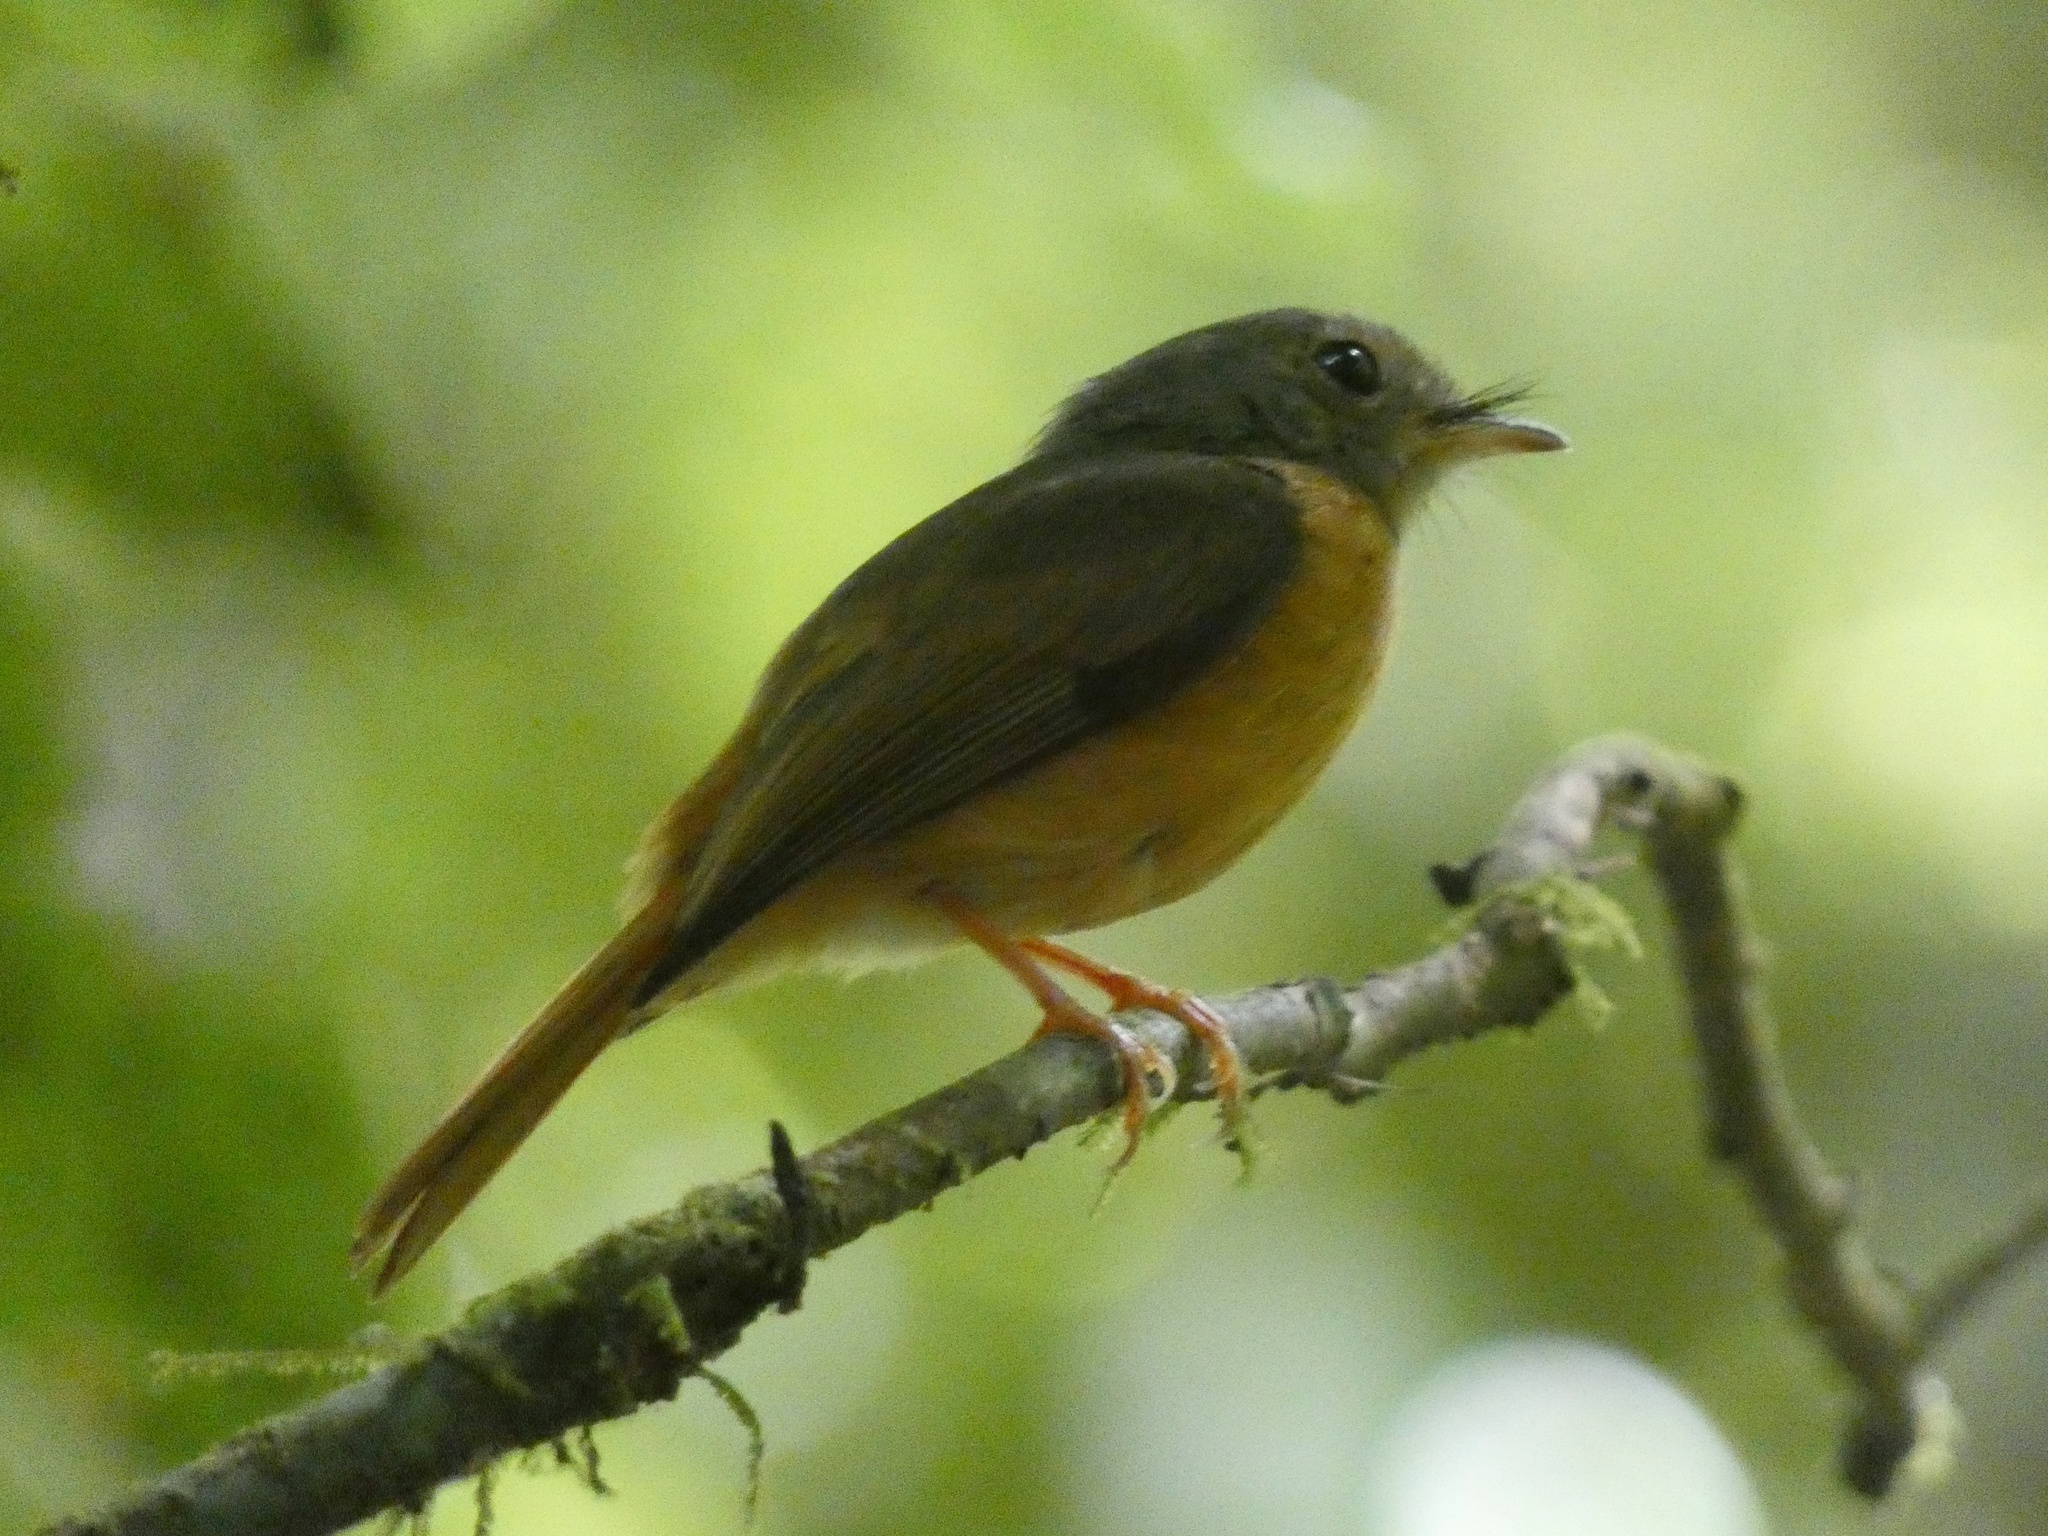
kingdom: Animalia
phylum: Chordata
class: Aves
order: Passeriformes
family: Tyrannidae
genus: Mionectes
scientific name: Mionectes oleagineus
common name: Ochre-bellied flycatcher
